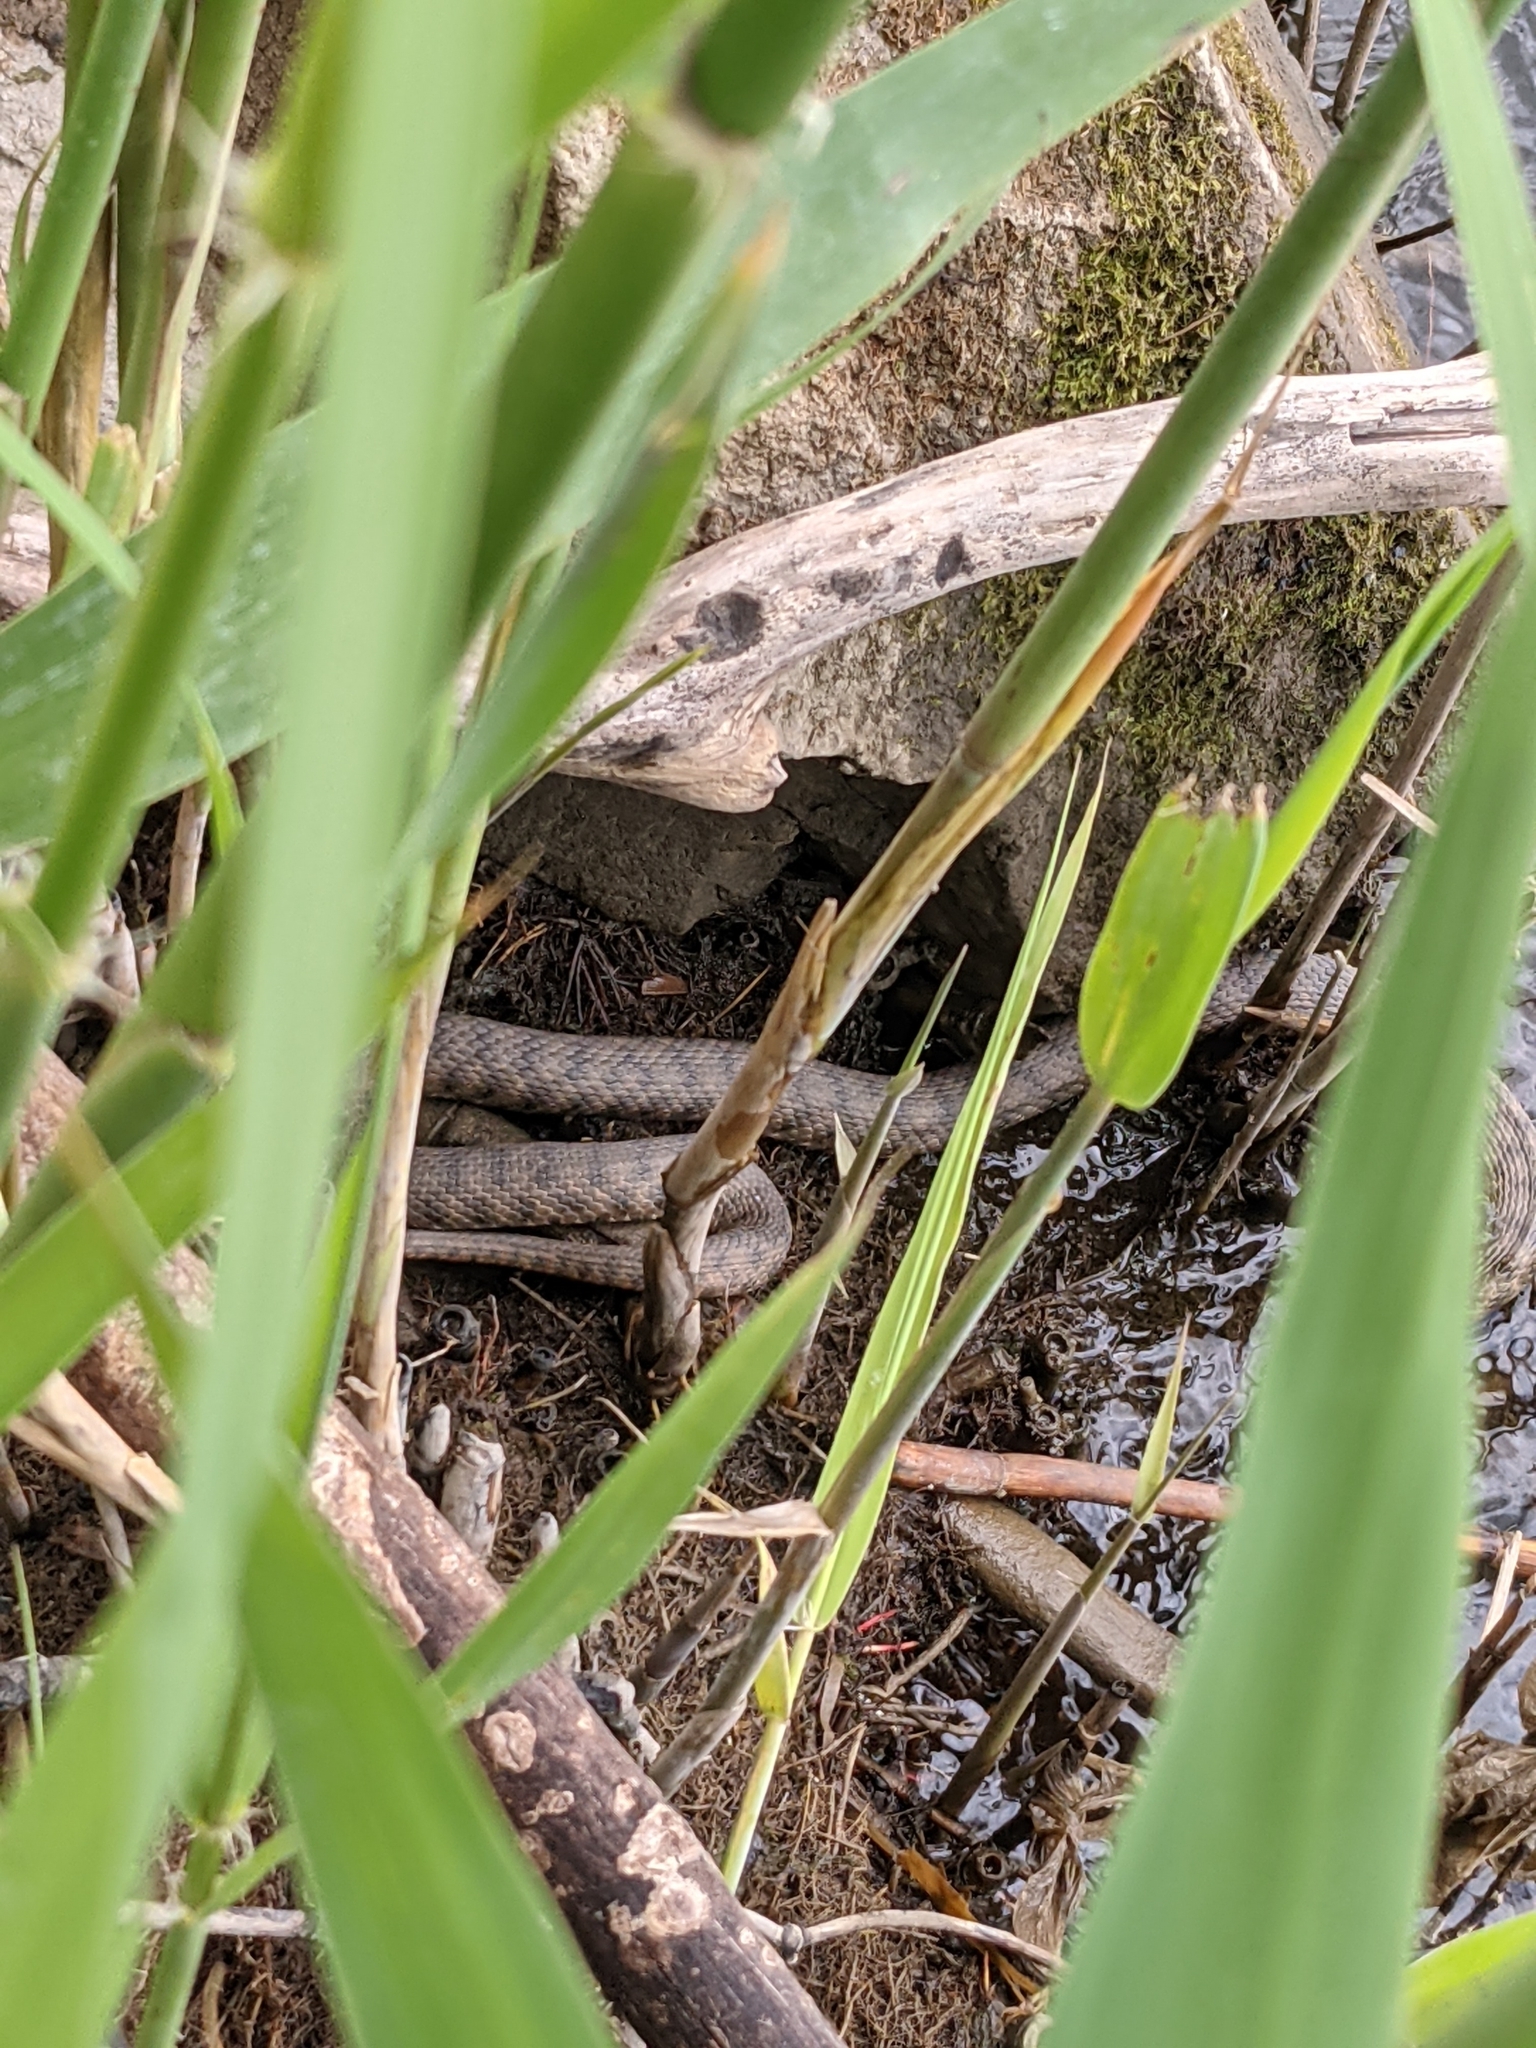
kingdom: Animalia
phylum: Chordata
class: Squamata
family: Colubridae
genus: Natrix
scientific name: Natrix tessellata
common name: Dice snake
